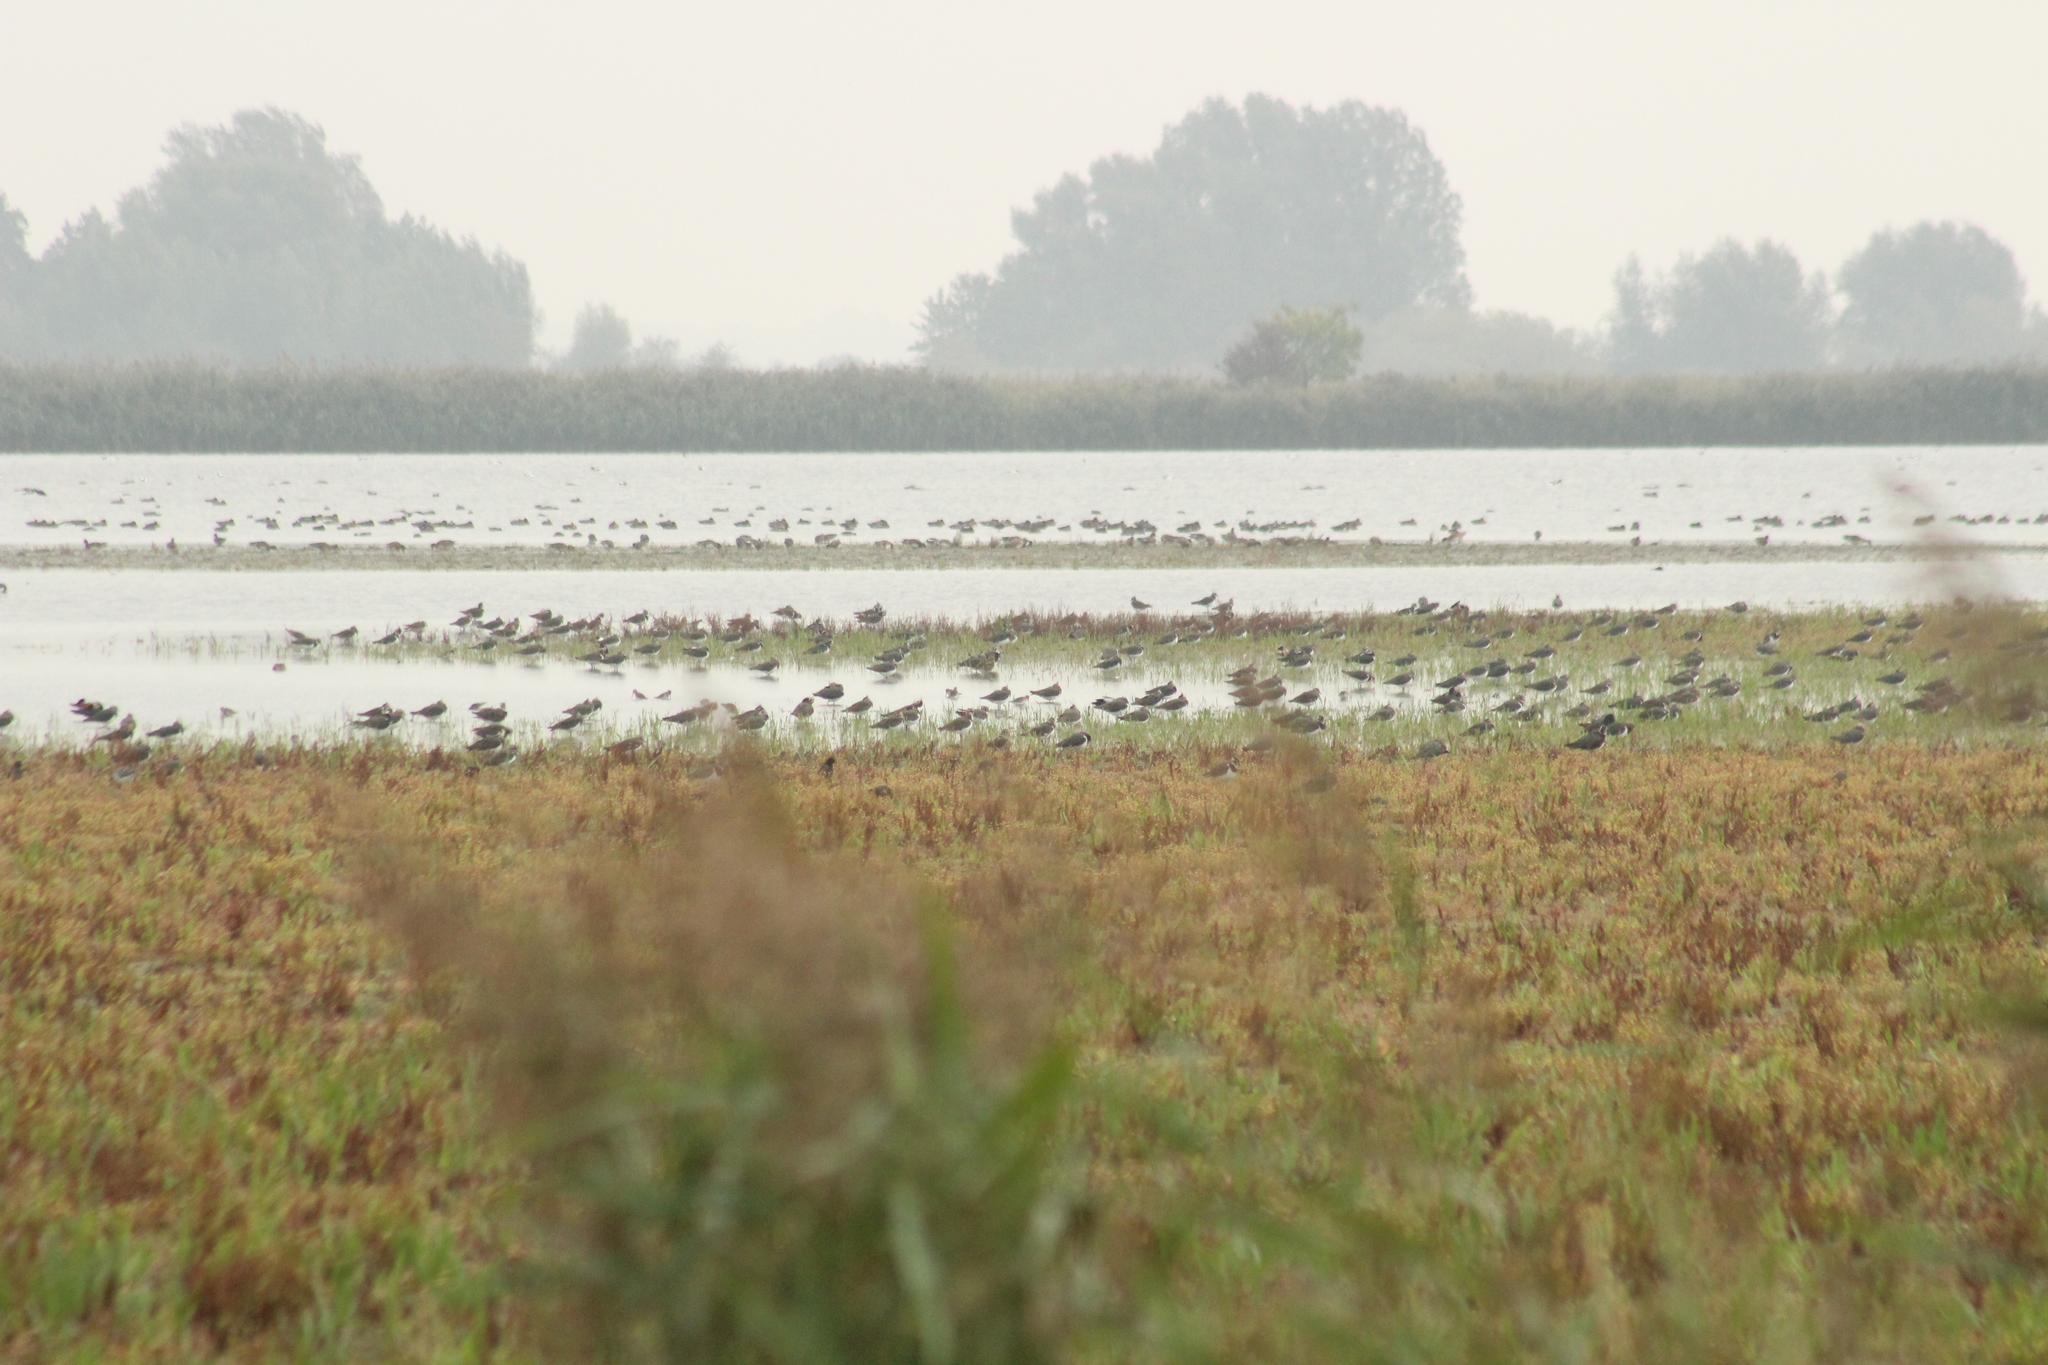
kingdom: Animalia
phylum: Chordata
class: Aves
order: Charadriiformes
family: Charadriidae
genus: Vanellus
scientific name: Vanellus vanellus
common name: Northern lapwing
